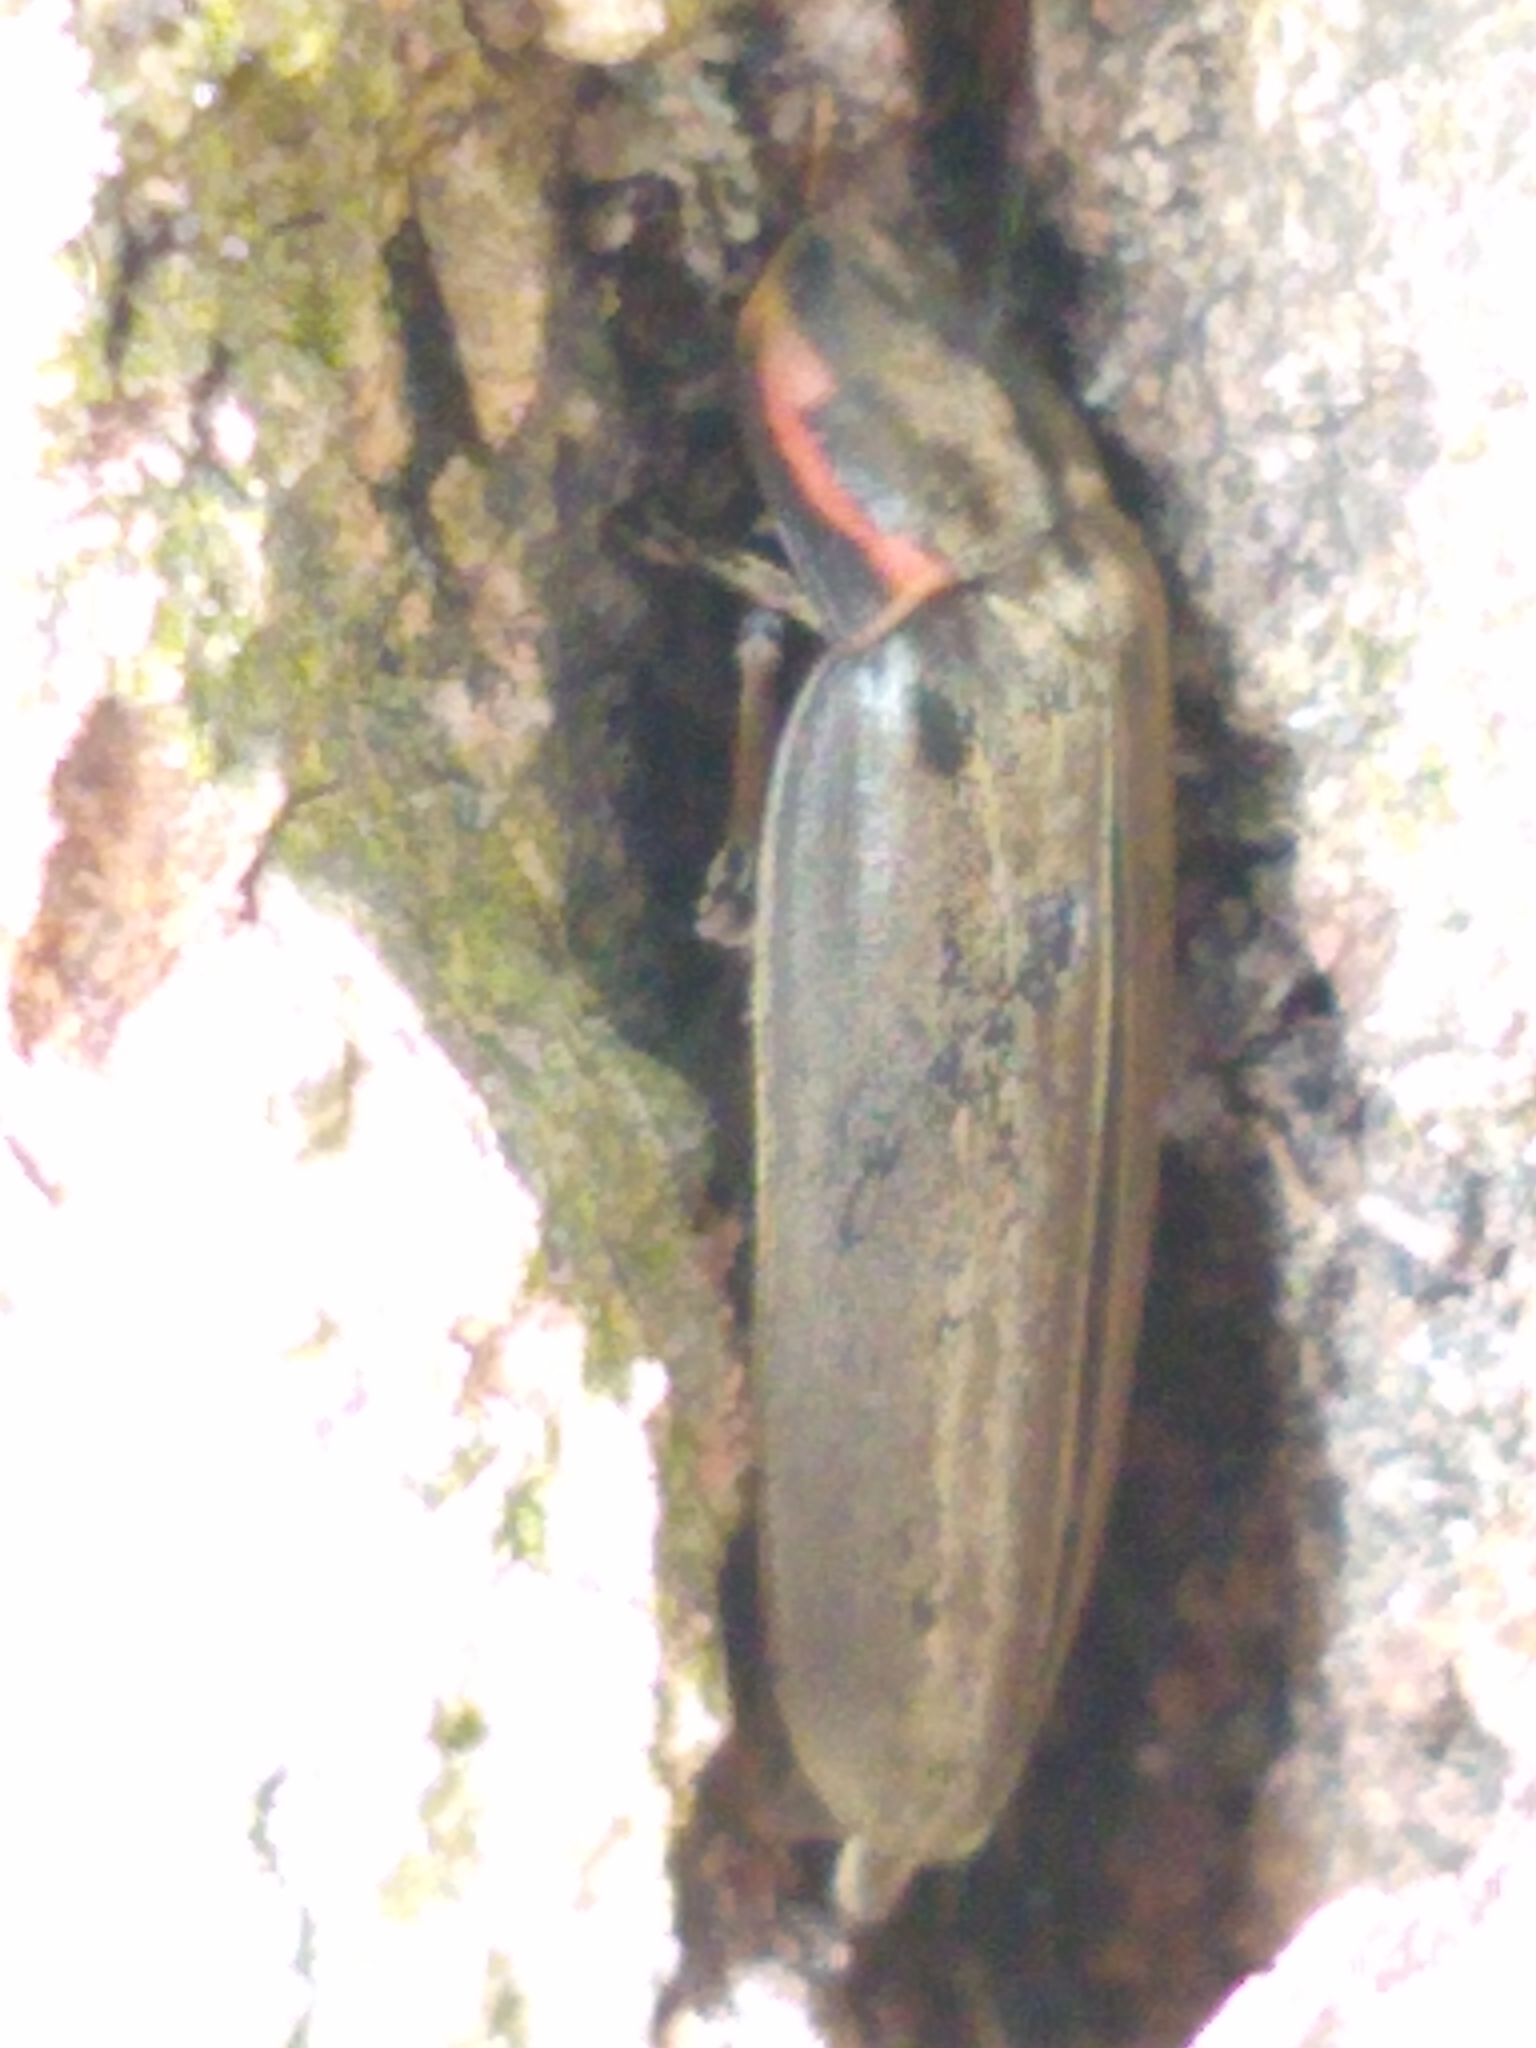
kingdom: Animalia
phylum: Arthropoda
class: Insecta
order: Coleoptera
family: Lampyridae
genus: Photinus
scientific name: Photinus corrusca
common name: Winter firefly
